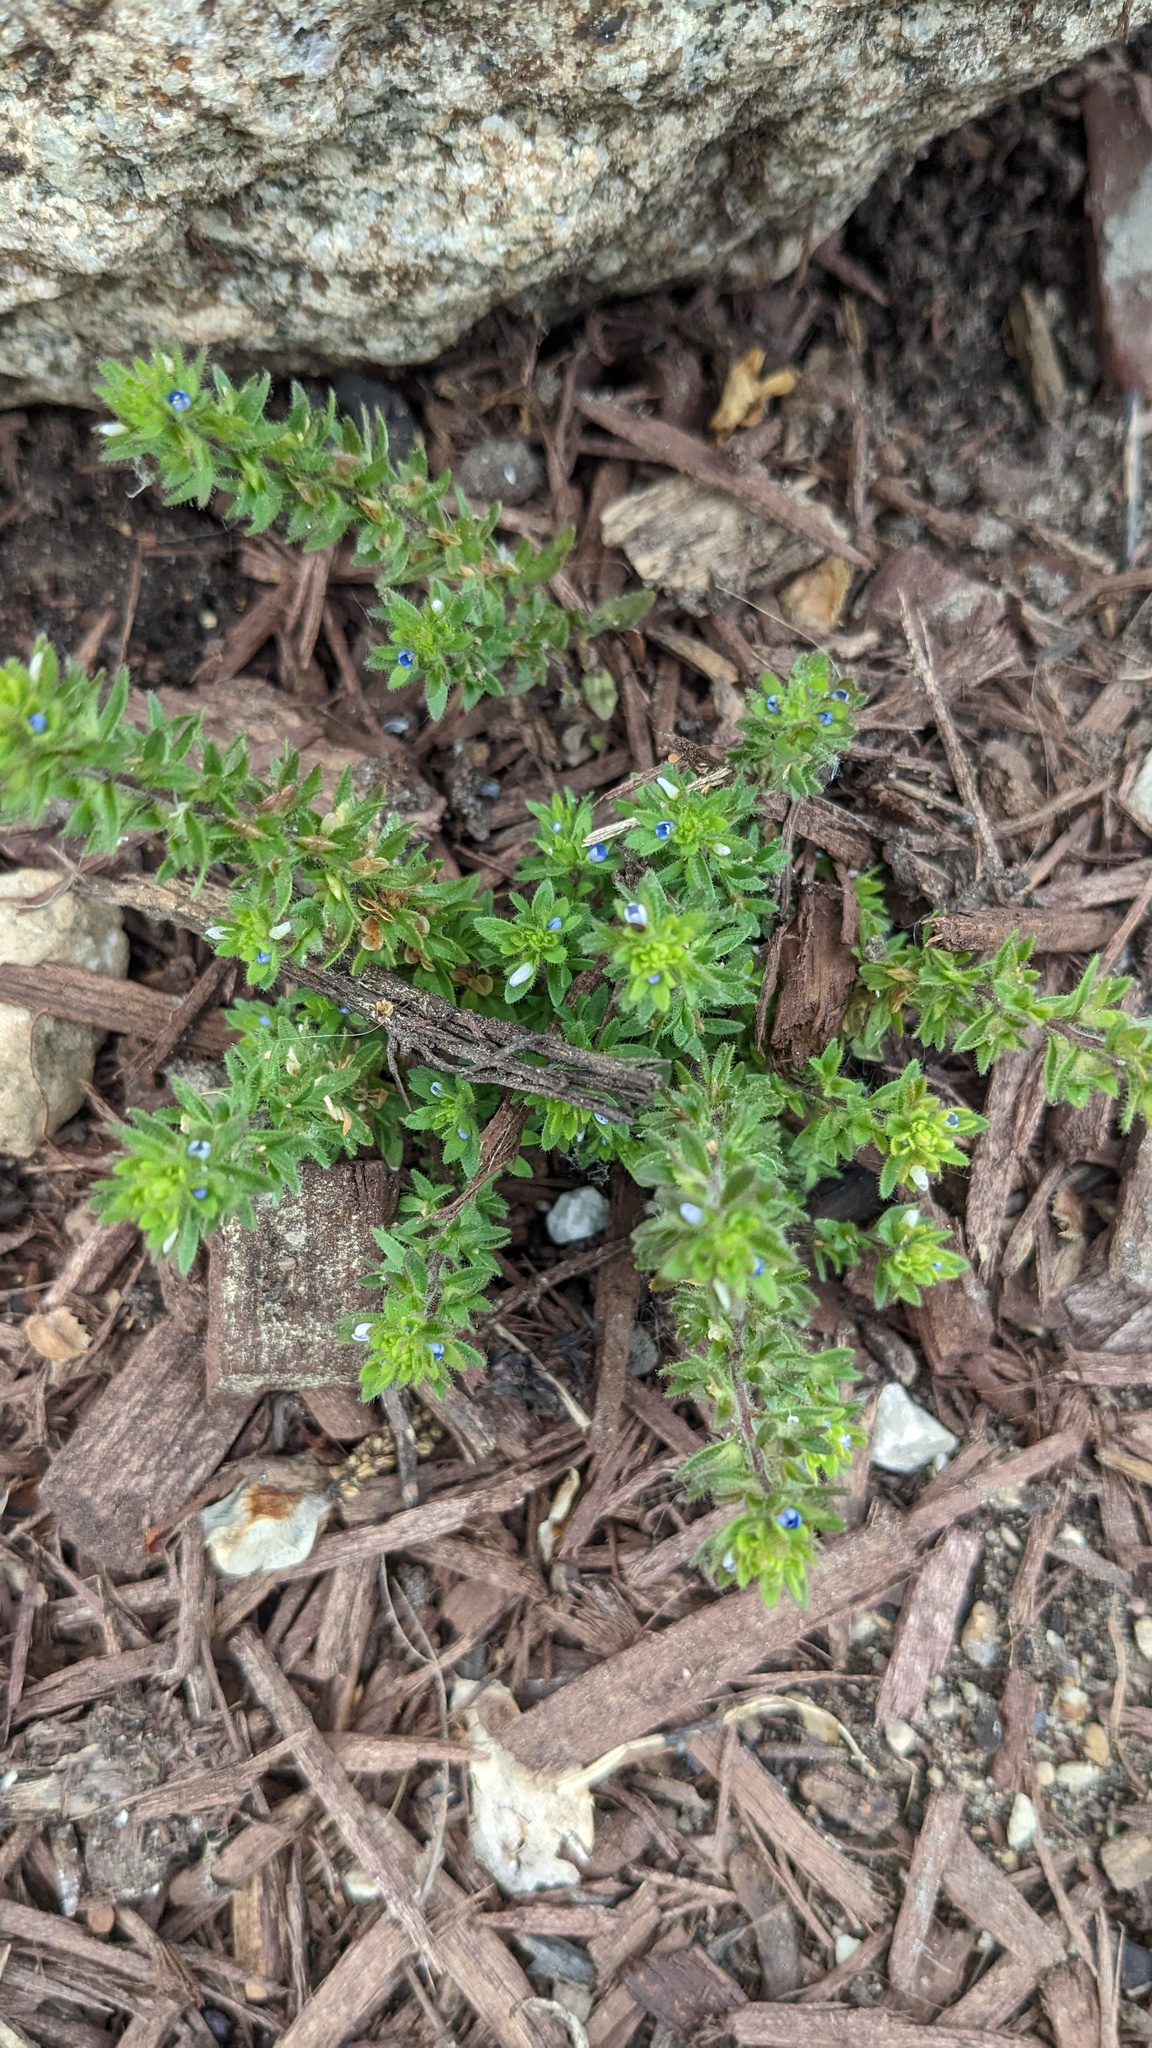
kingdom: Plantae
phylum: Tracheophyta
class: Magnoliopsida
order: Lamiales
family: Plantaginaceae
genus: Veronica
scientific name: Veronica arvensis
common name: Corn speedwell
